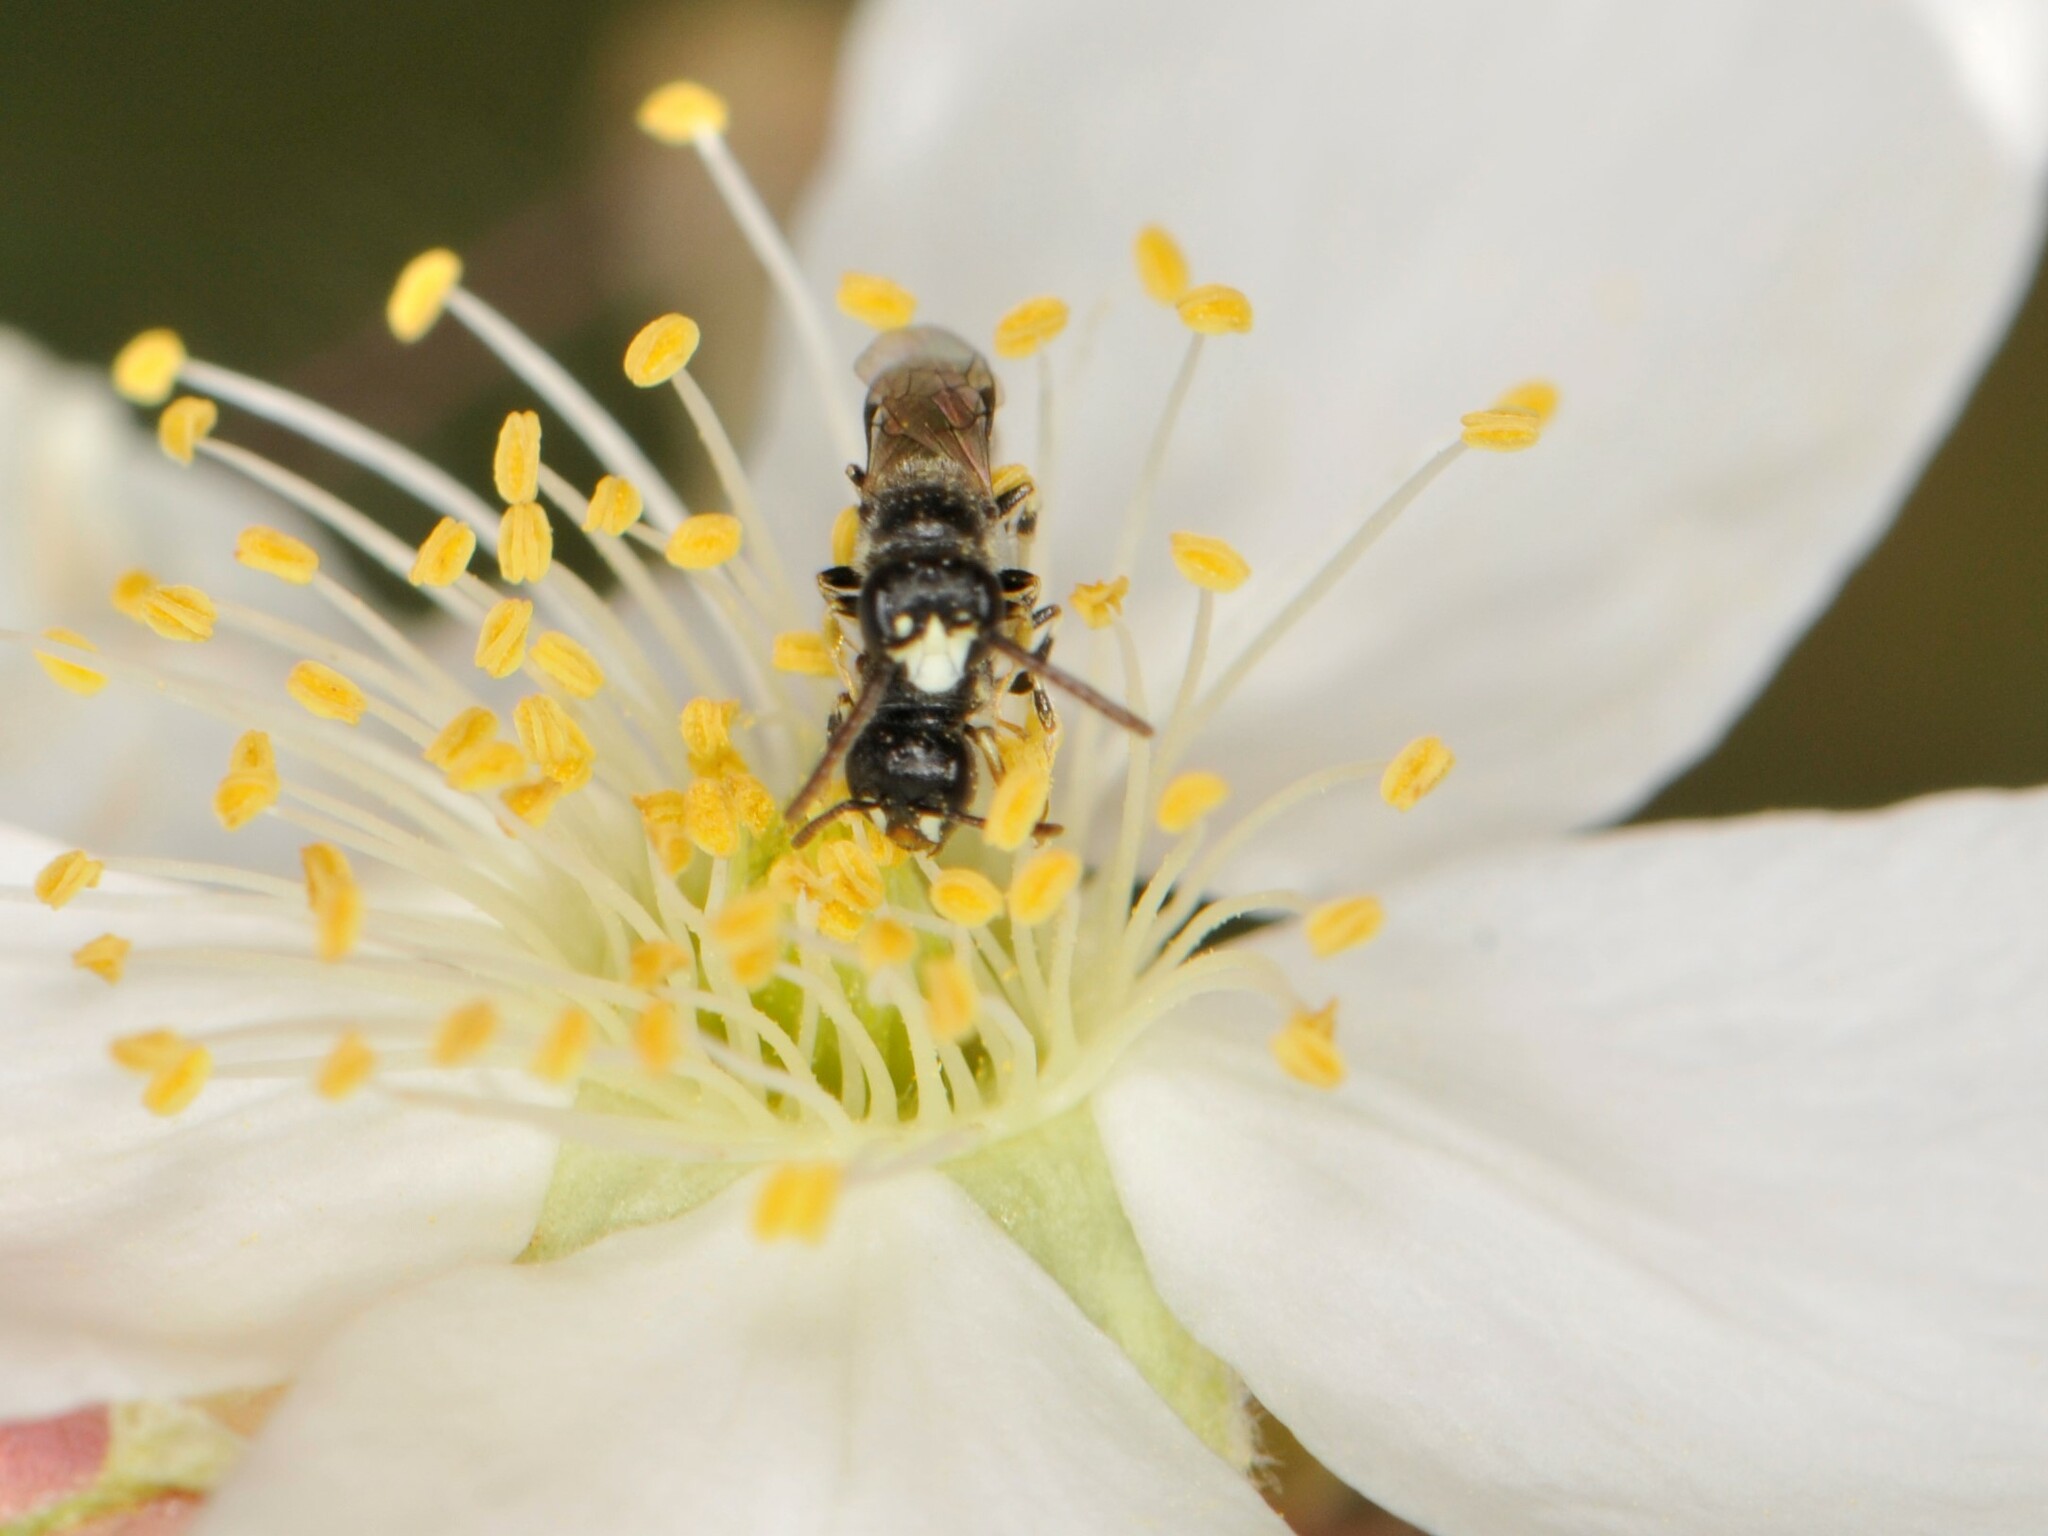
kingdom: Animalia
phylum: Arthropoda
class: Insecta
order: Hymenoptera
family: Colletidae
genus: Hylaeus
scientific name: Hylaeus
